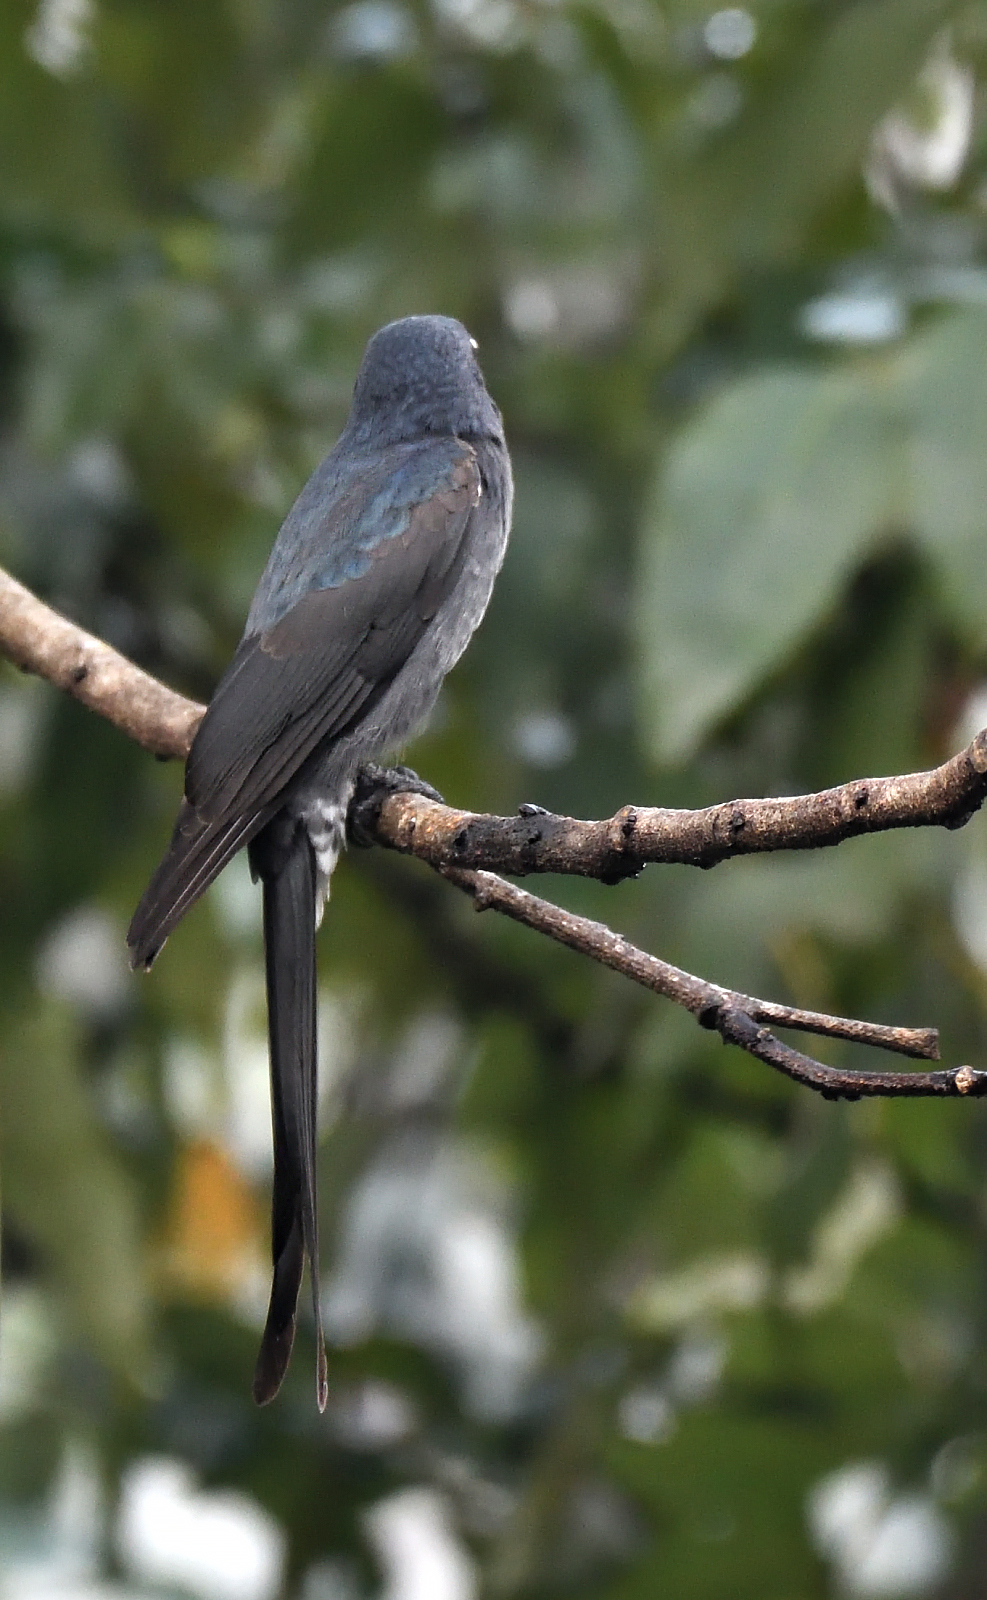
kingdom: Animalia
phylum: Chordata
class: Aves
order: Passeriformes
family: Dicruridae
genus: Dicrurus
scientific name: Dicrurus leucophaeus
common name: Ashy drongo
